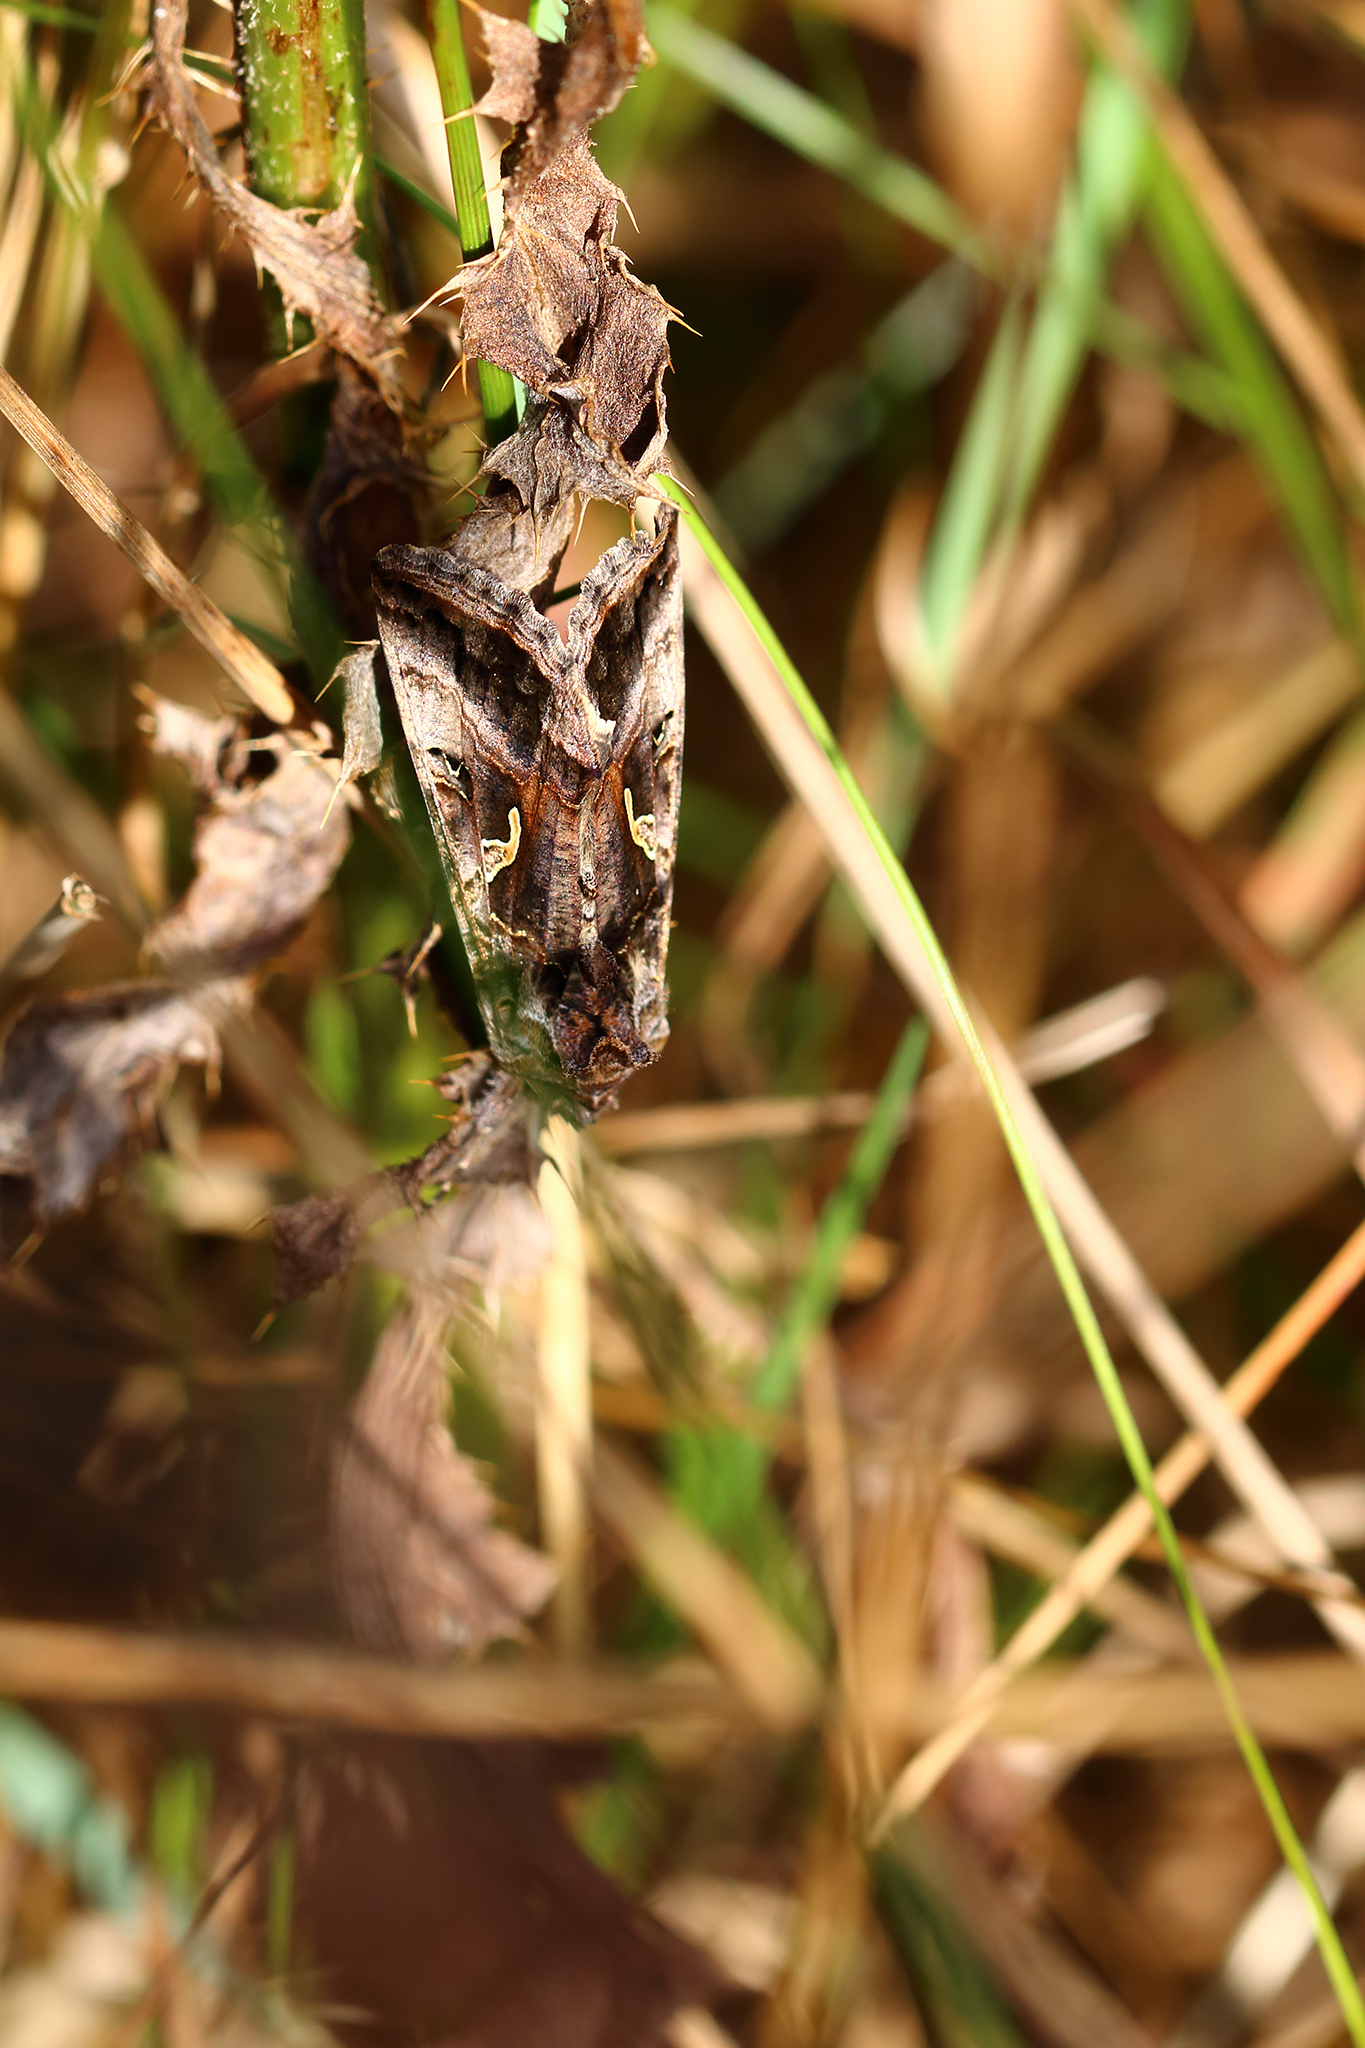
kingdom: Animalia
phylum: Arthropoda
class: Insecta
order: Lepidoptera
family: Noctuidae
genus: Autographa
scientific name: Autographa gamma
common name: Silver y
